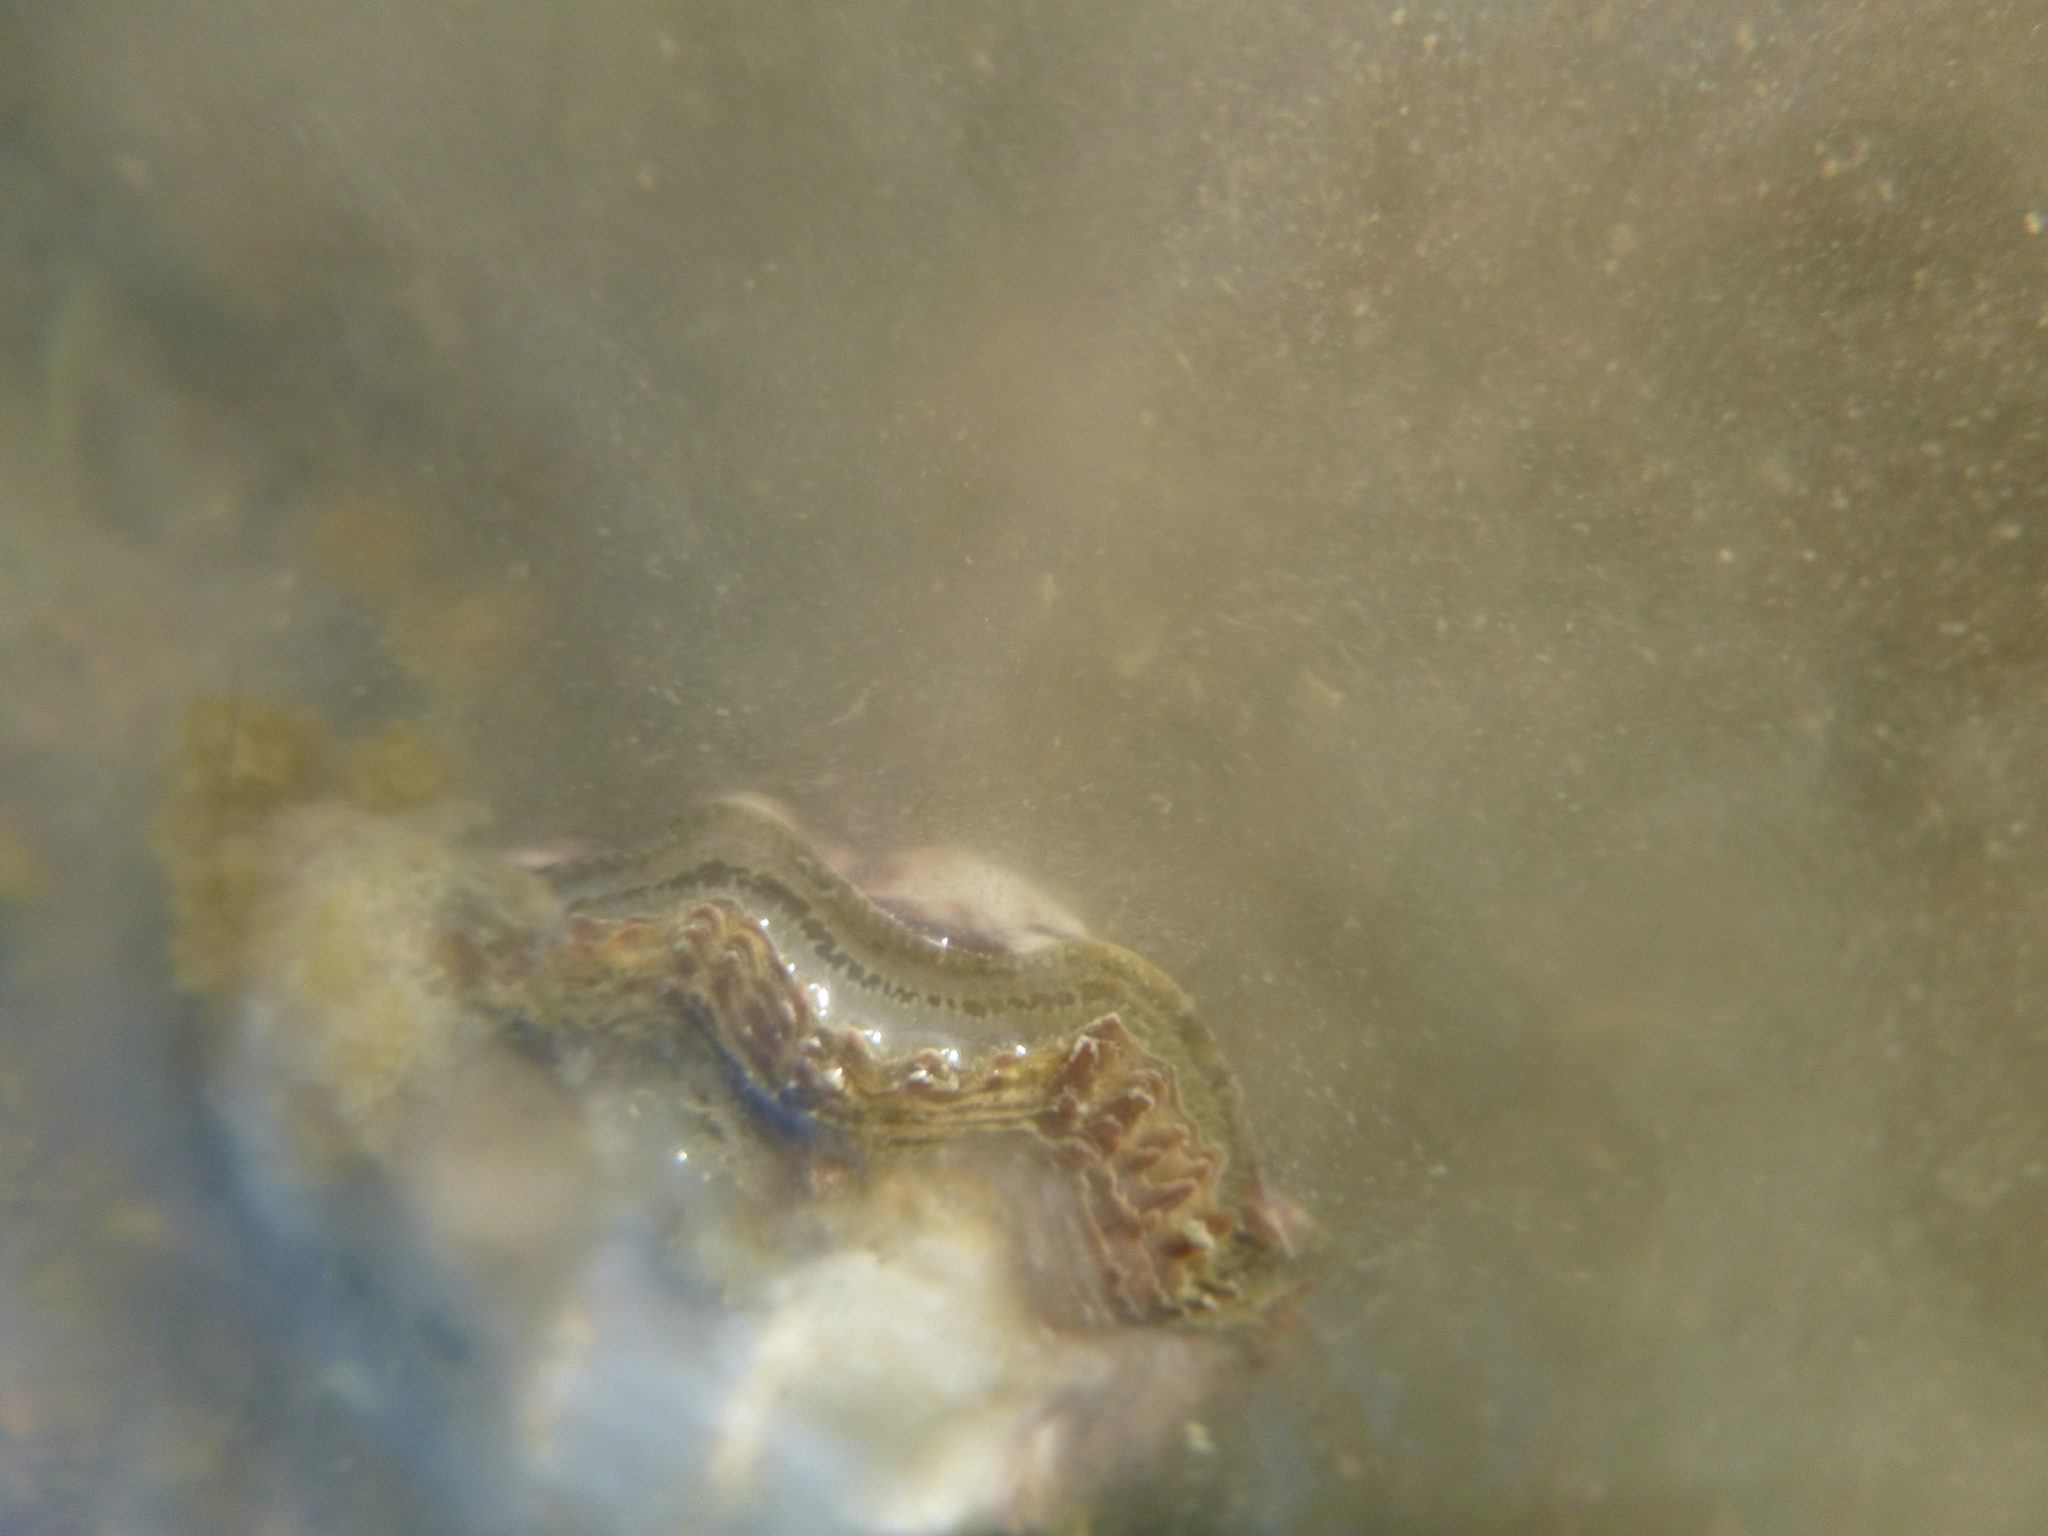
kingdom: Animalia
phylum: Mollusca
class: Bivalvia
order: Ostreida
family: Ostreidae
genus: Magallana
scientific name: Magallana gigas
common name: Pacific oyster
